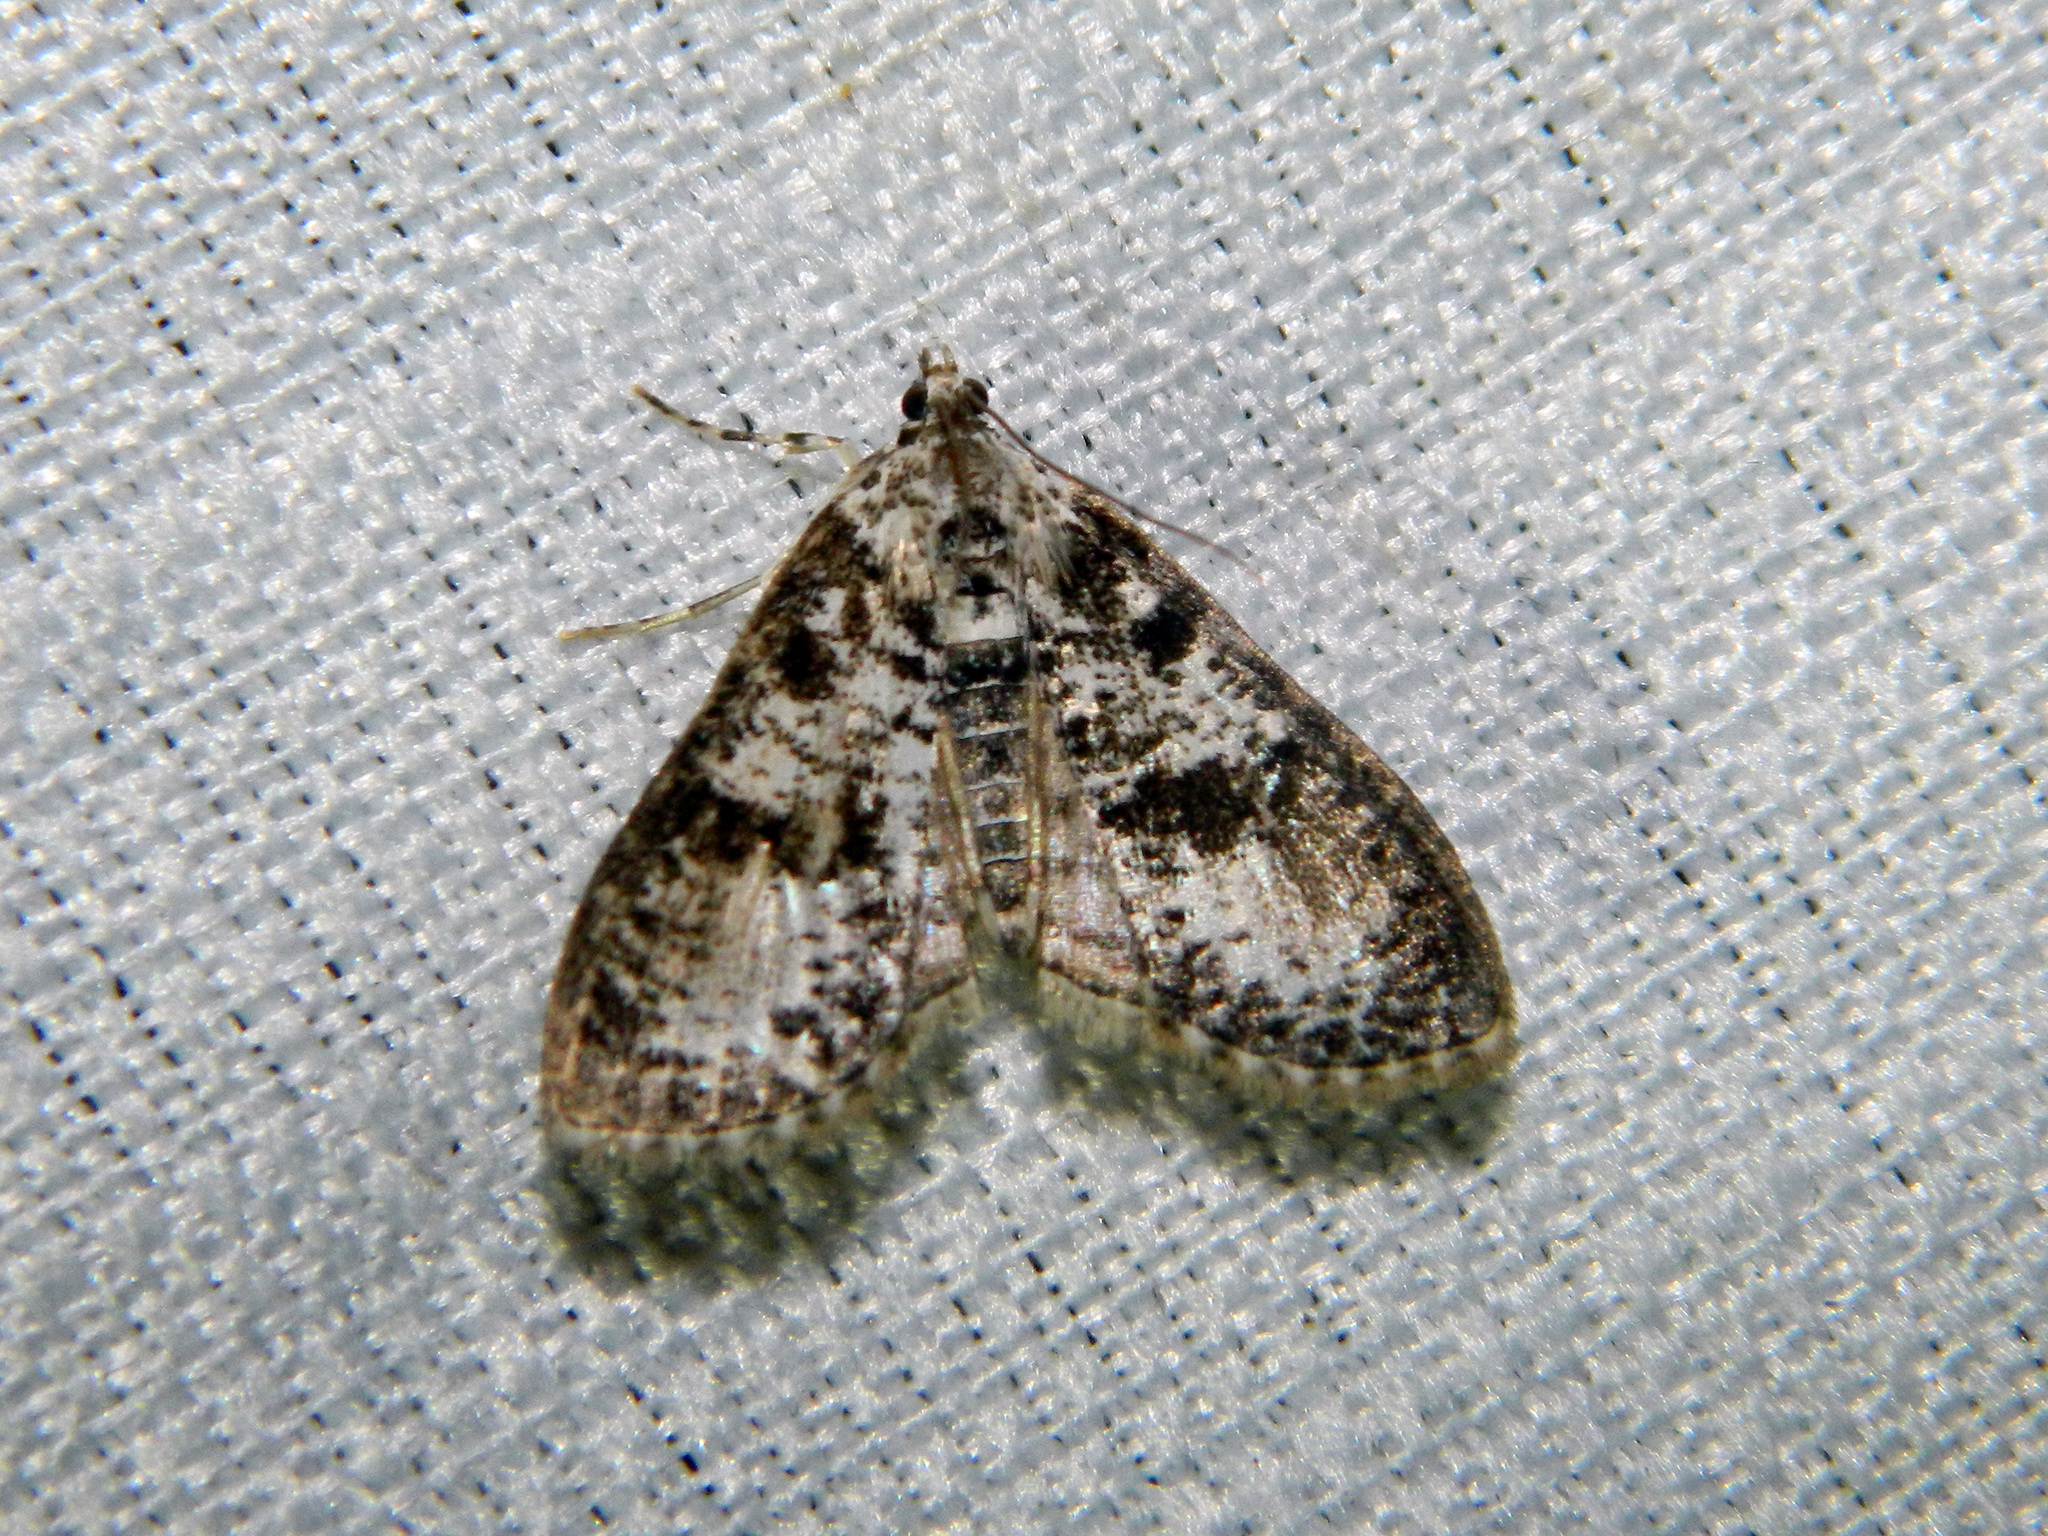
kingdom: Animalia
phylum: Arthropoda
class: Insecta
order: Lepidoptera
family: Crambidae
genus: Palpita
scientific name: Palpita magniferalis
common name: Splendid palpita moth
